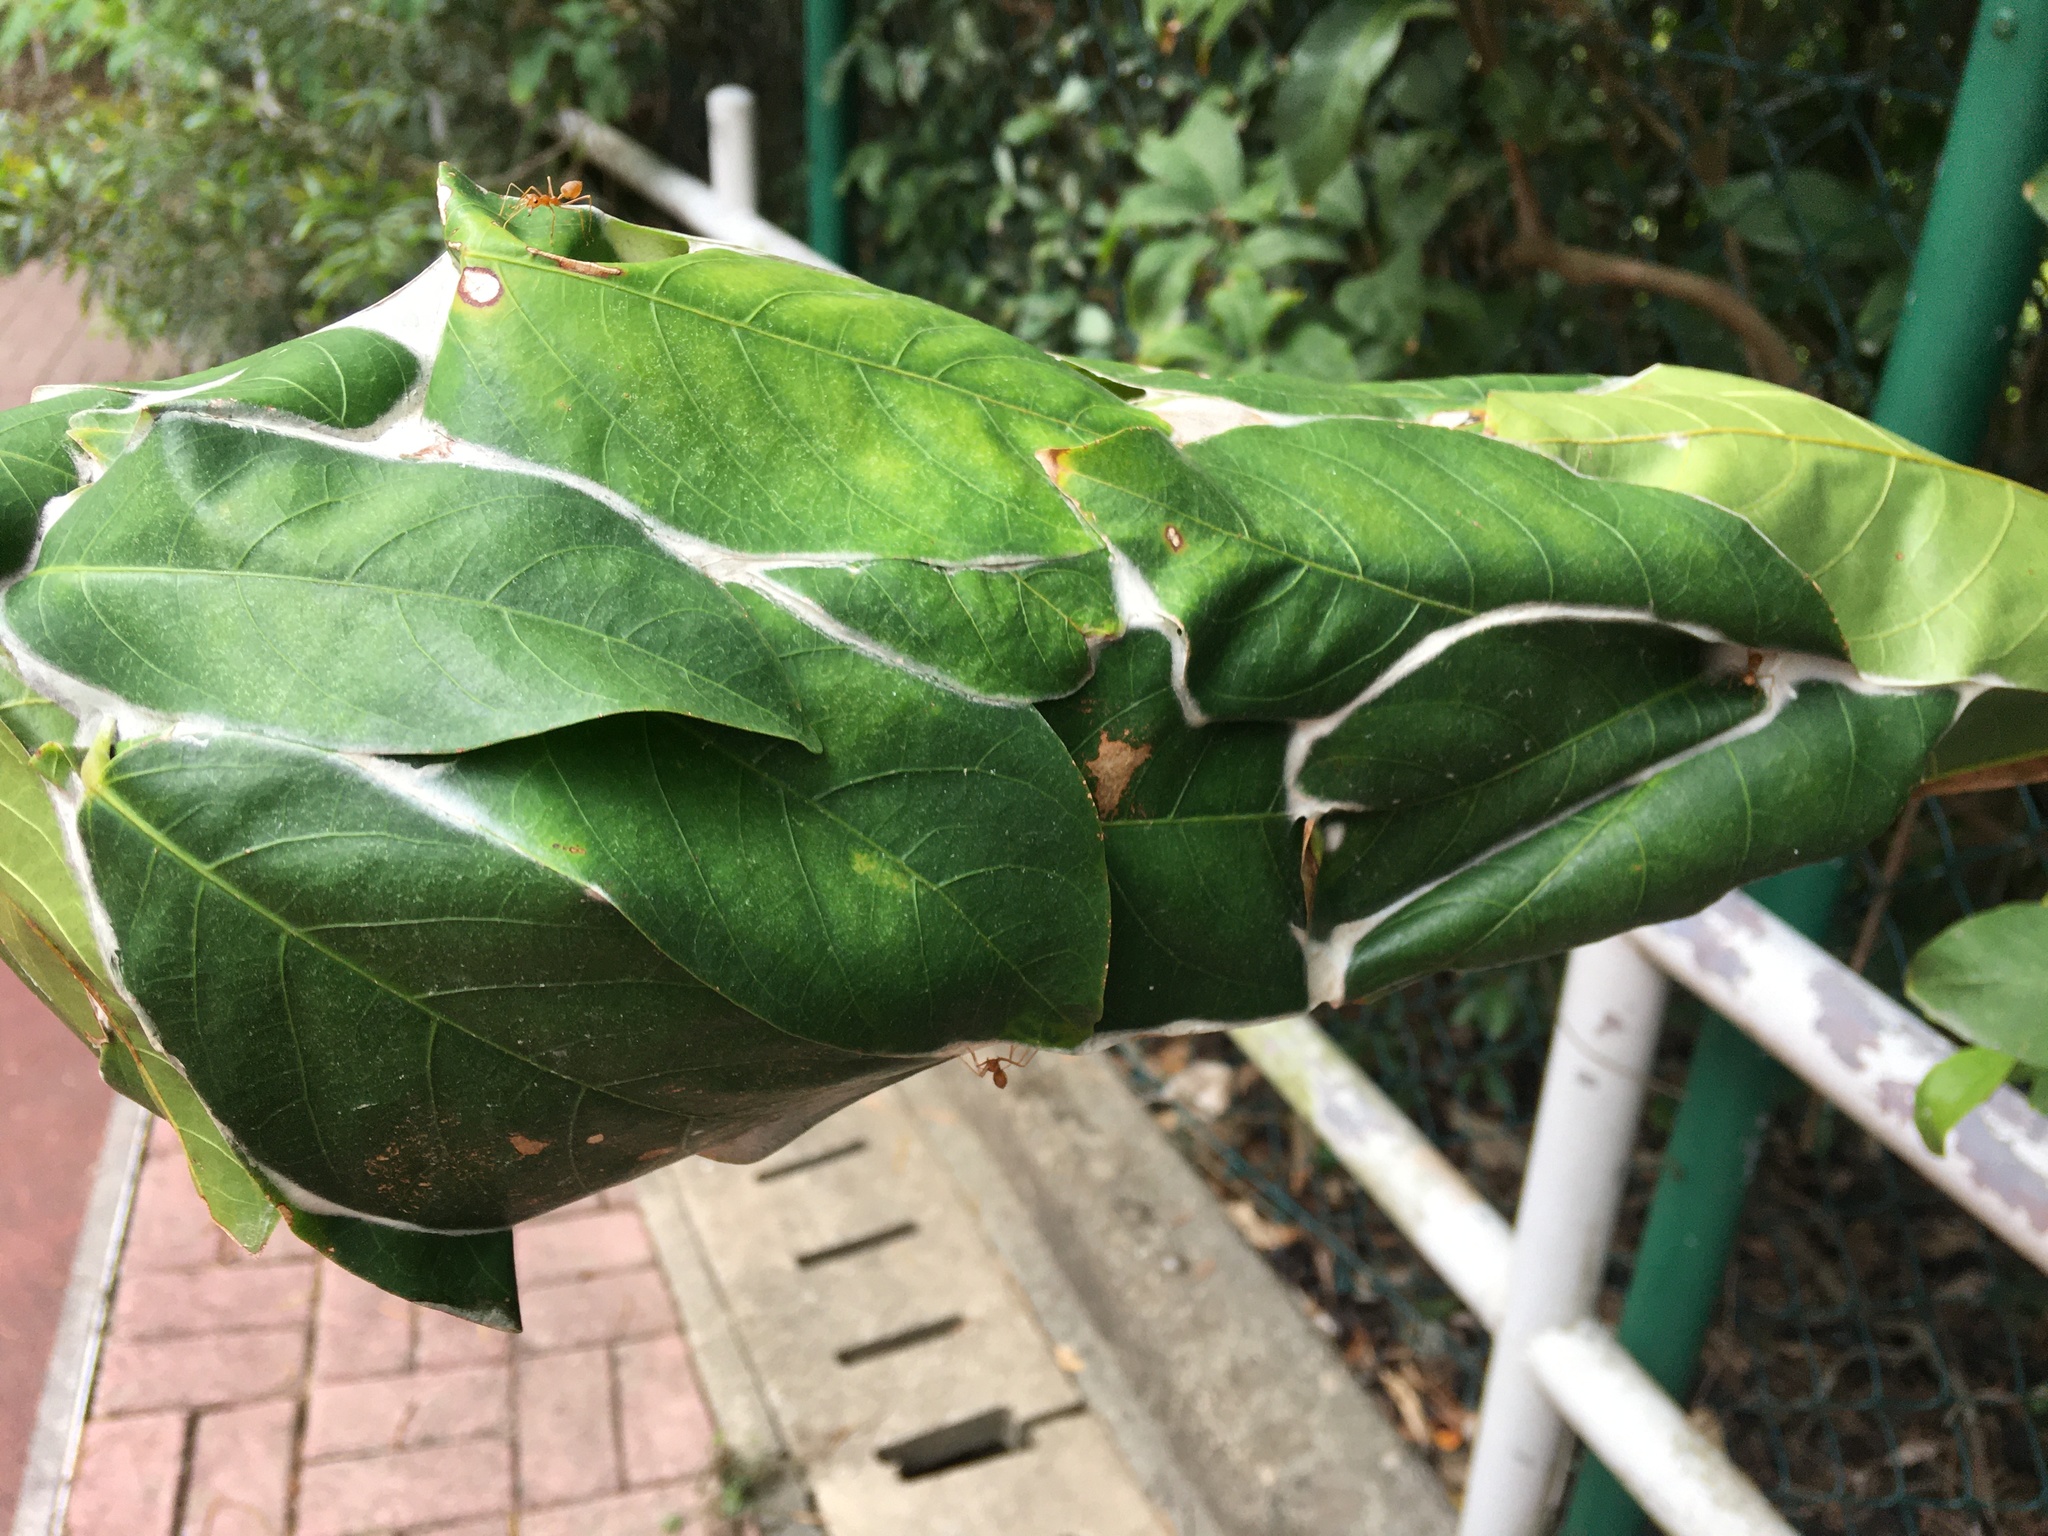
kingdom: Animalia
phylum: Arthropoda
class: Insecta
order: Hymenoptera
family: Formicidae
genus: Oecophylla
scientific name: Oecophylla smaragdina
